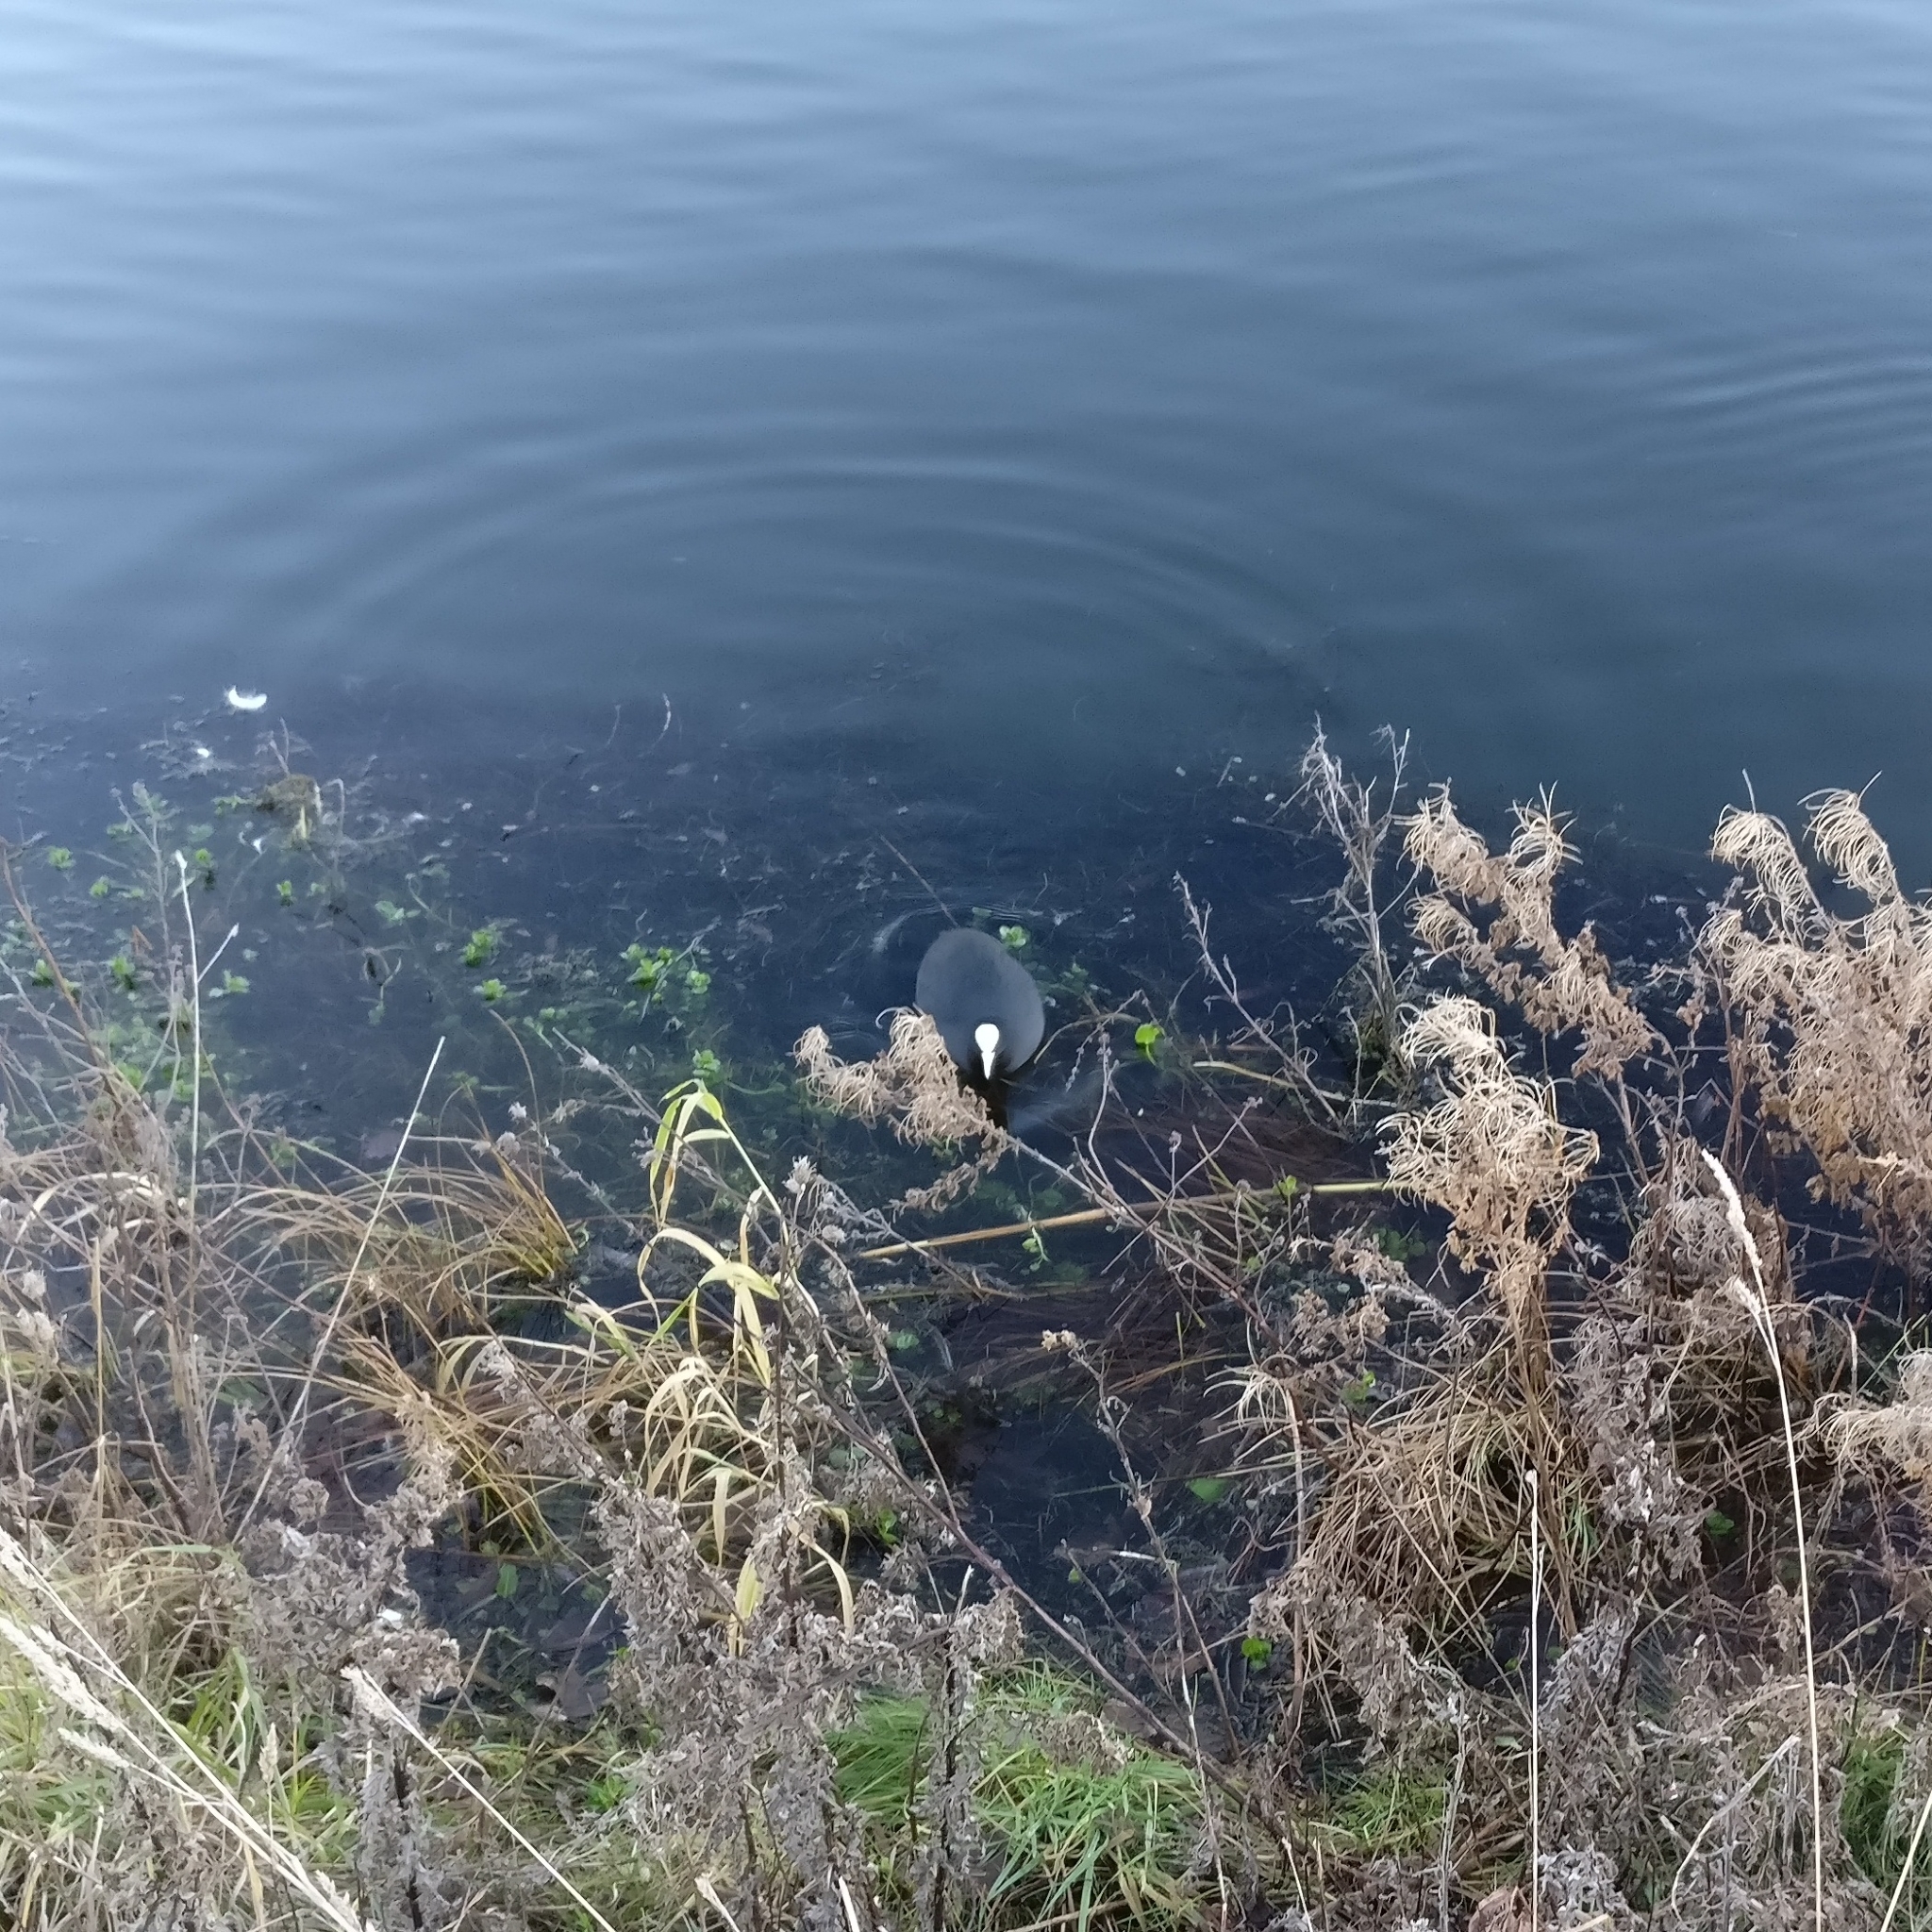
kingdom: Animalia
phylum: Chordata
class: Aves
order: Gruiformes
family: Rallidae
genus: Fulica
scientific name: Fulica atra
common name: Eurasian coot
